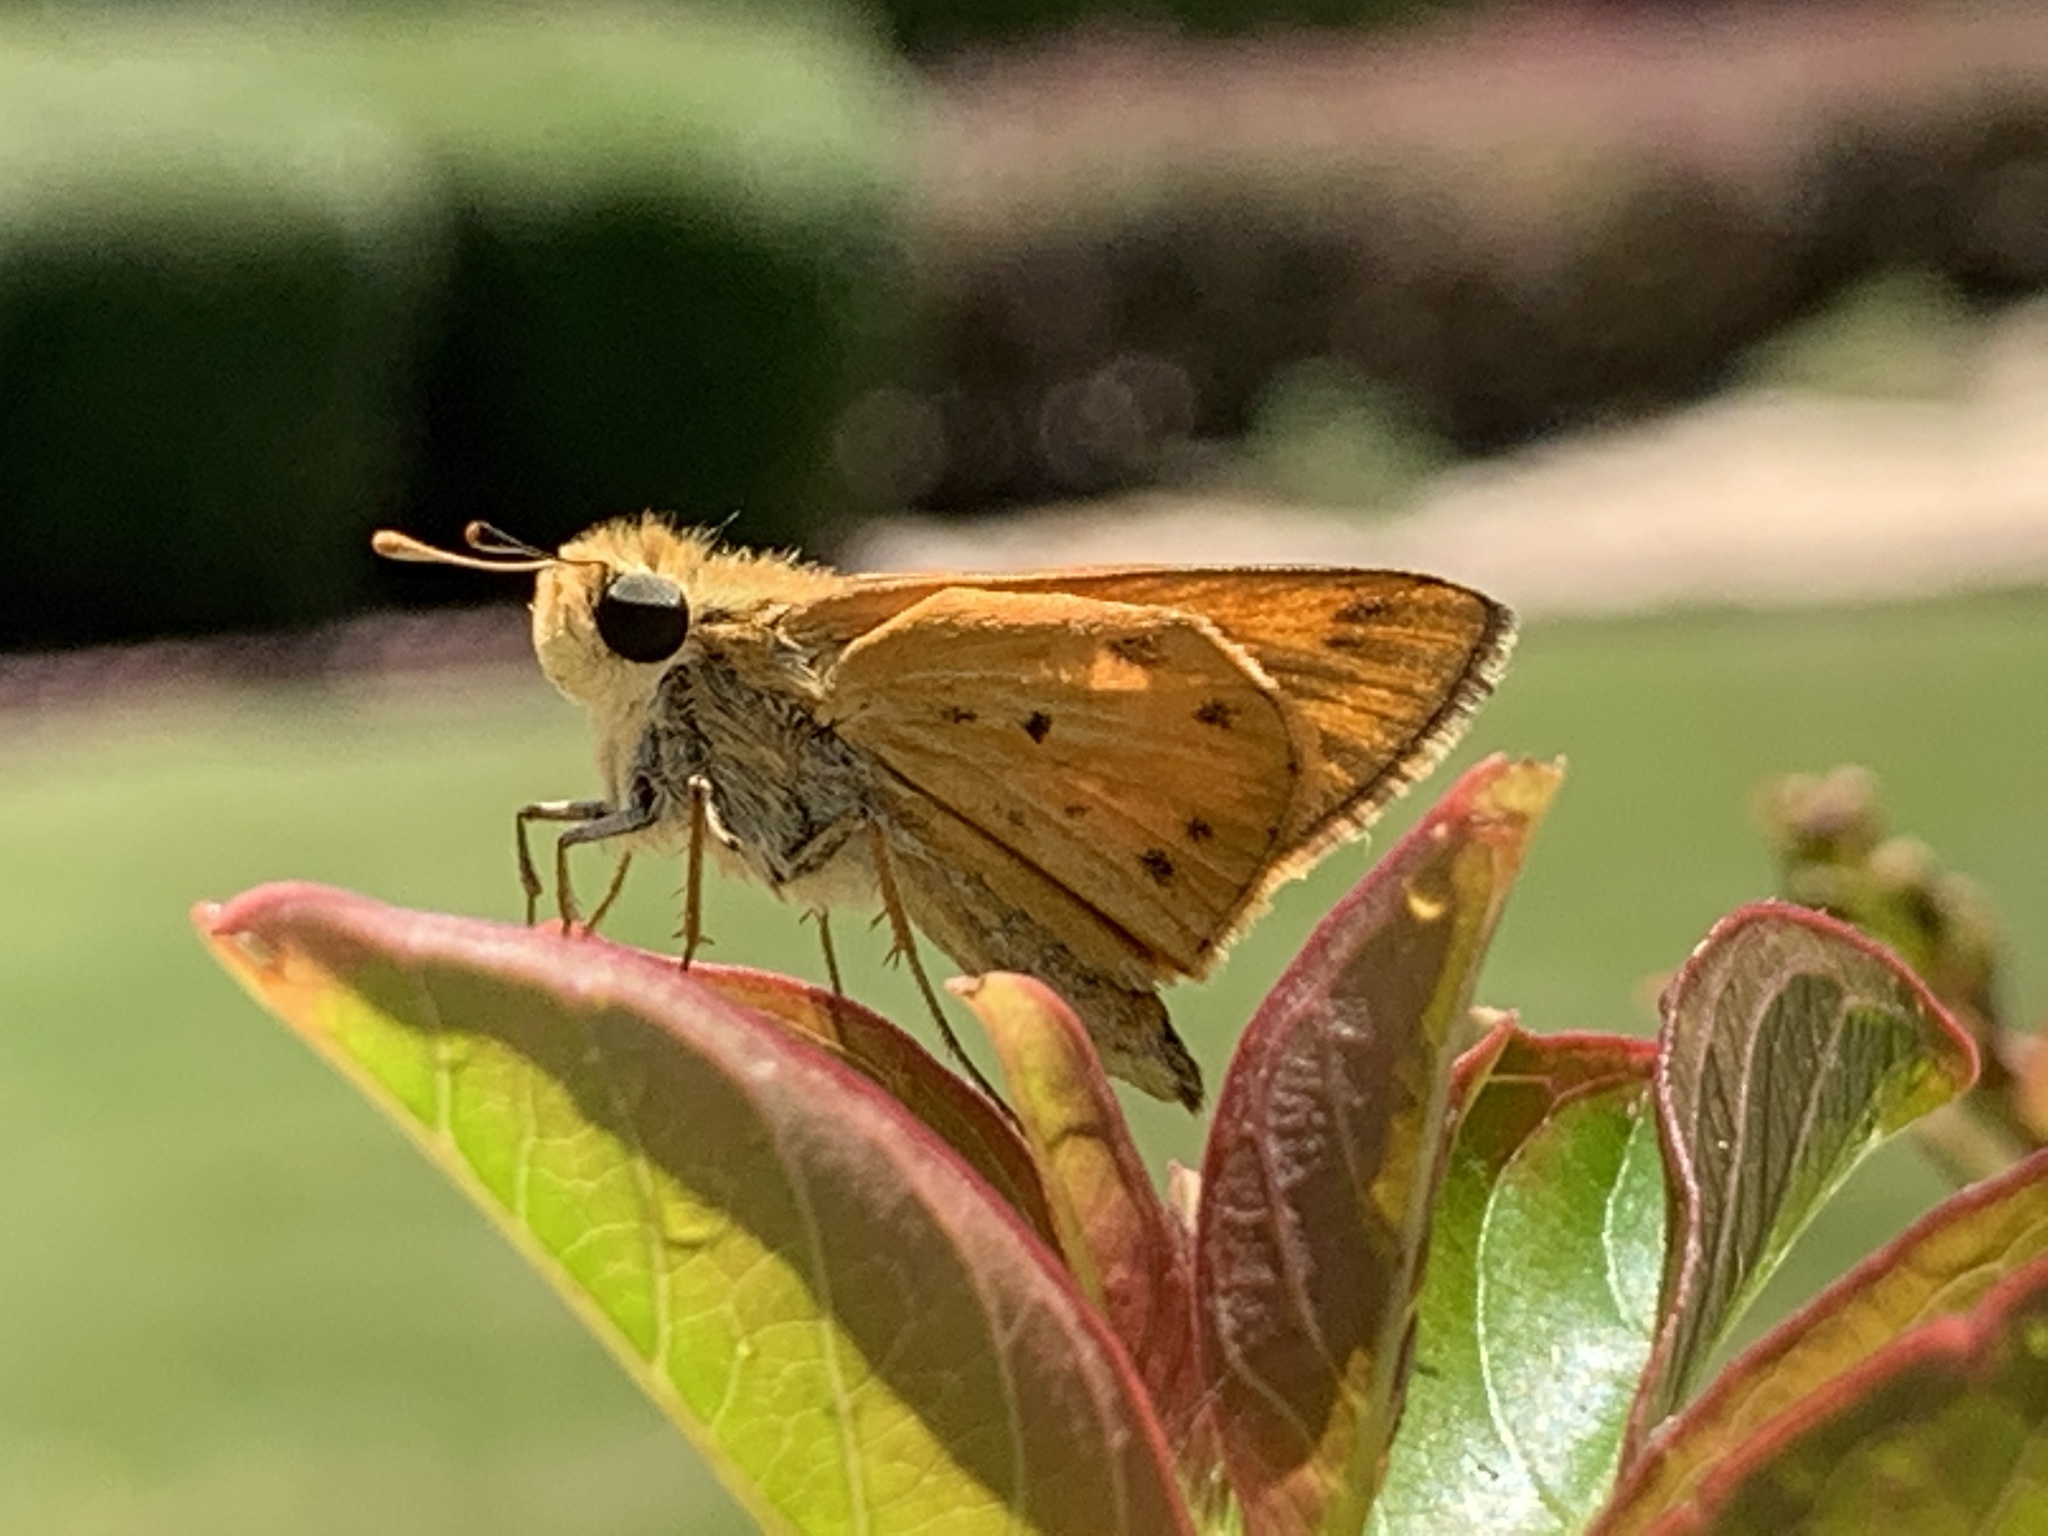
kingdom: Animalia
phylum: Arthropoda
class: Insecta
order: Lepidoptera
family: Hesperiidae
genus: Hylephila
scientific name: Hylephila phyleus
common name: Fiery skipper
